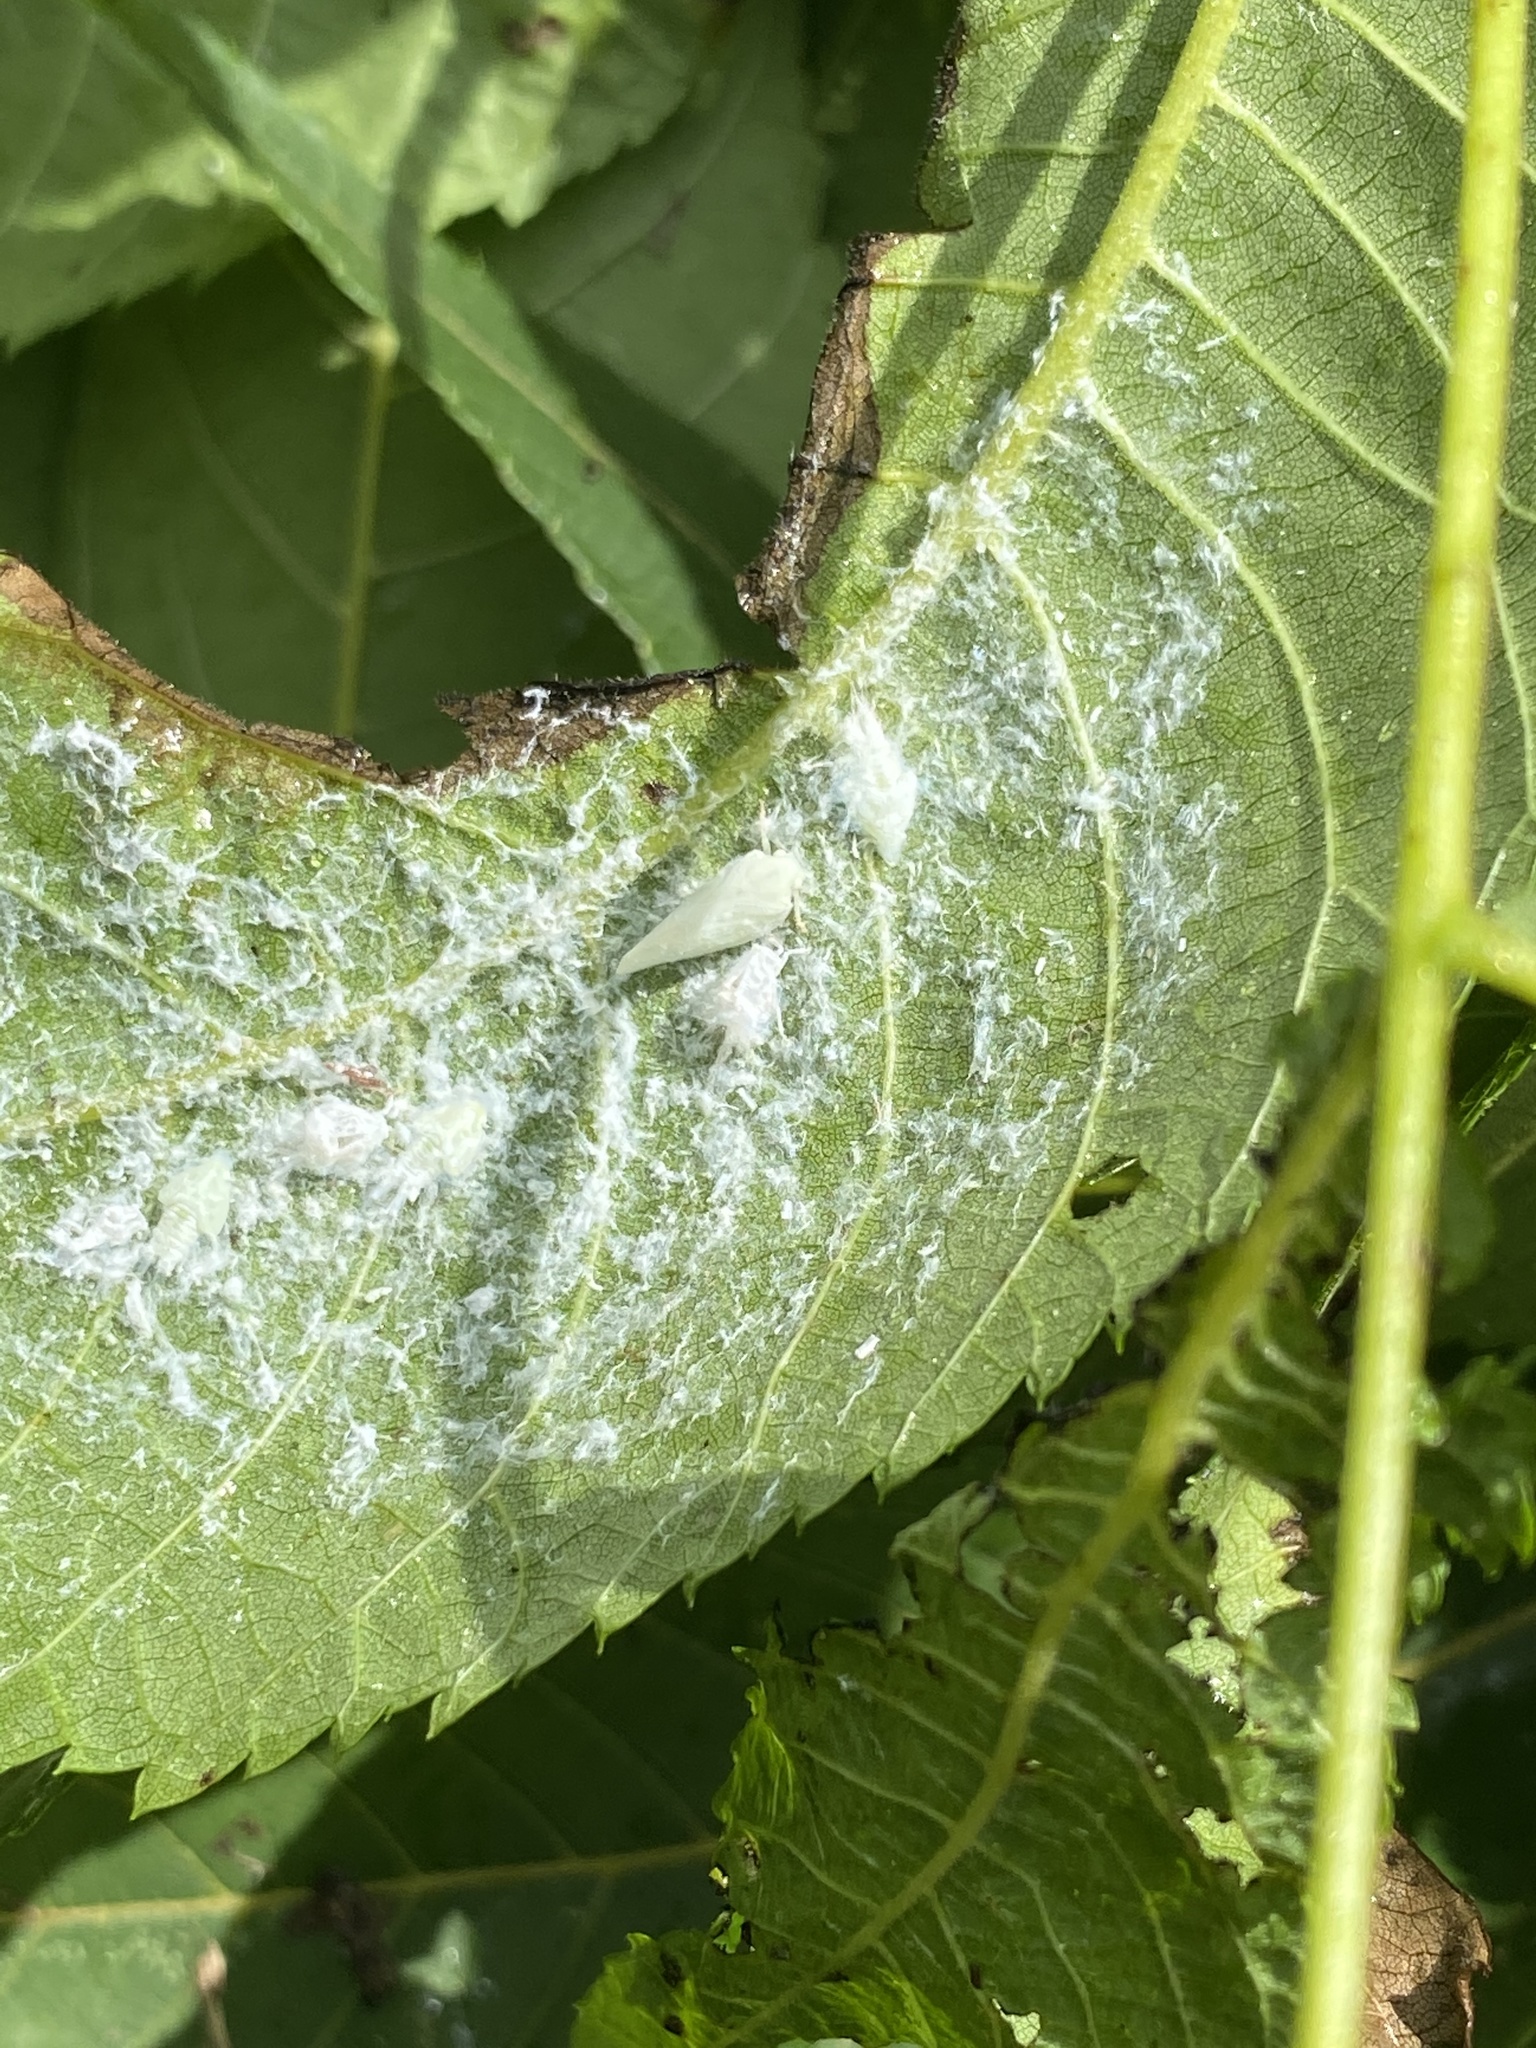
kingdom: Animalia
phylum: Arthropoda
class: Insecta
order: Hemiptera
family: Flatidae
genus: Metcalfa
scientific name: Metcalfa pruinosa
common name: Citrus flatid planthopper
